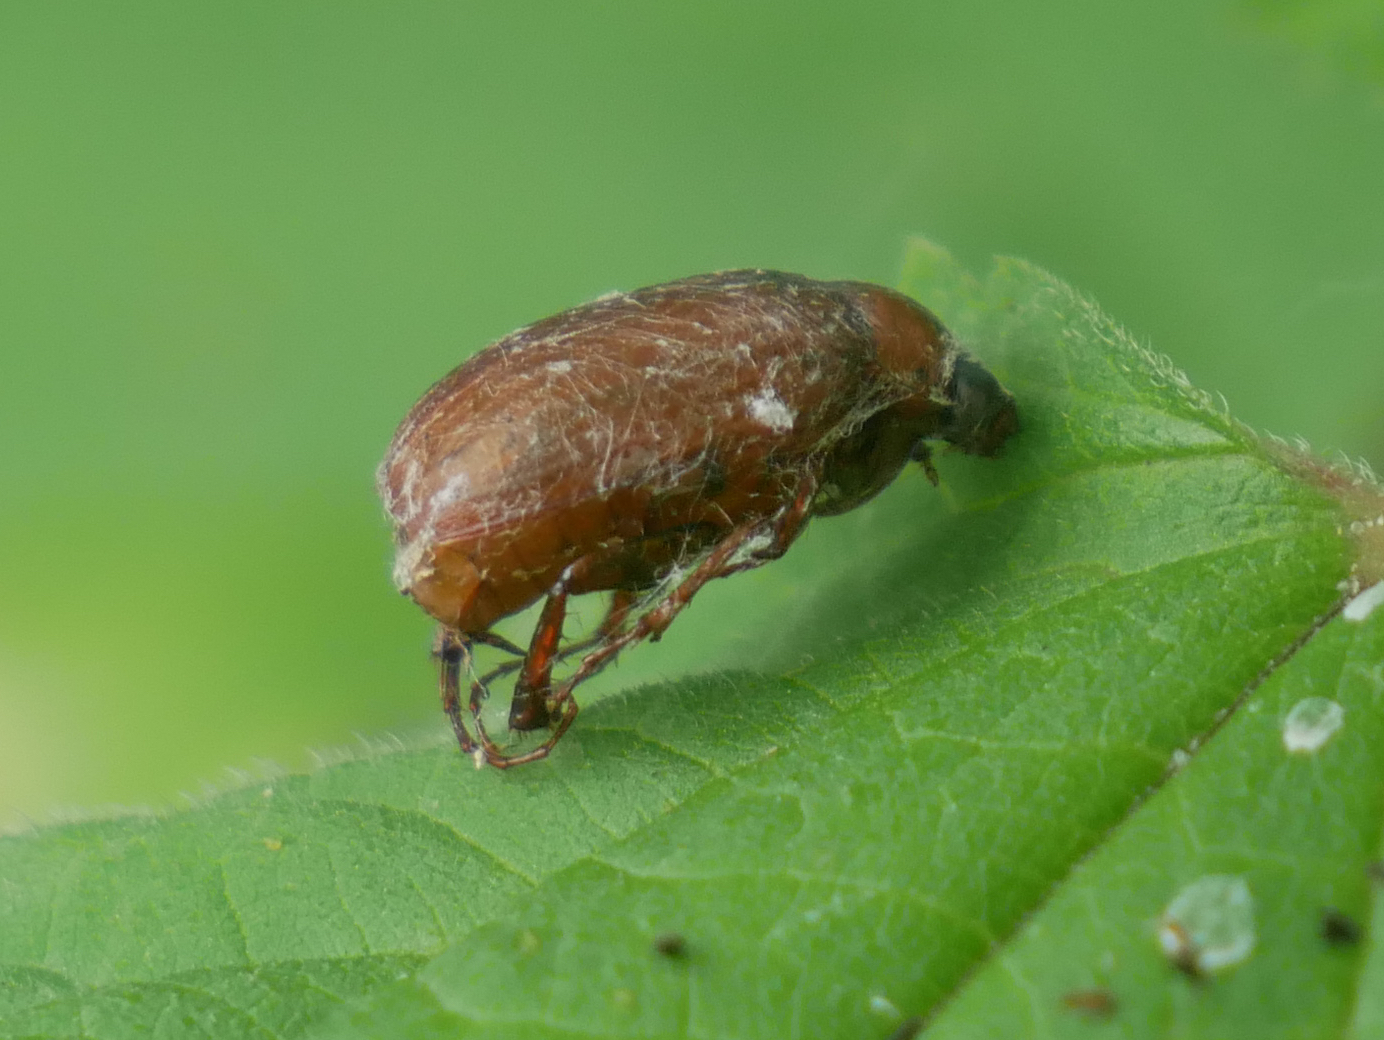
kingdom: Animalia
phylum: Arthropoda
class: Insecta
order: Coleoptera
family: Scarabaeidae
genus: Serica
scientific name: Serica brunnea
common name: Brown chafer
